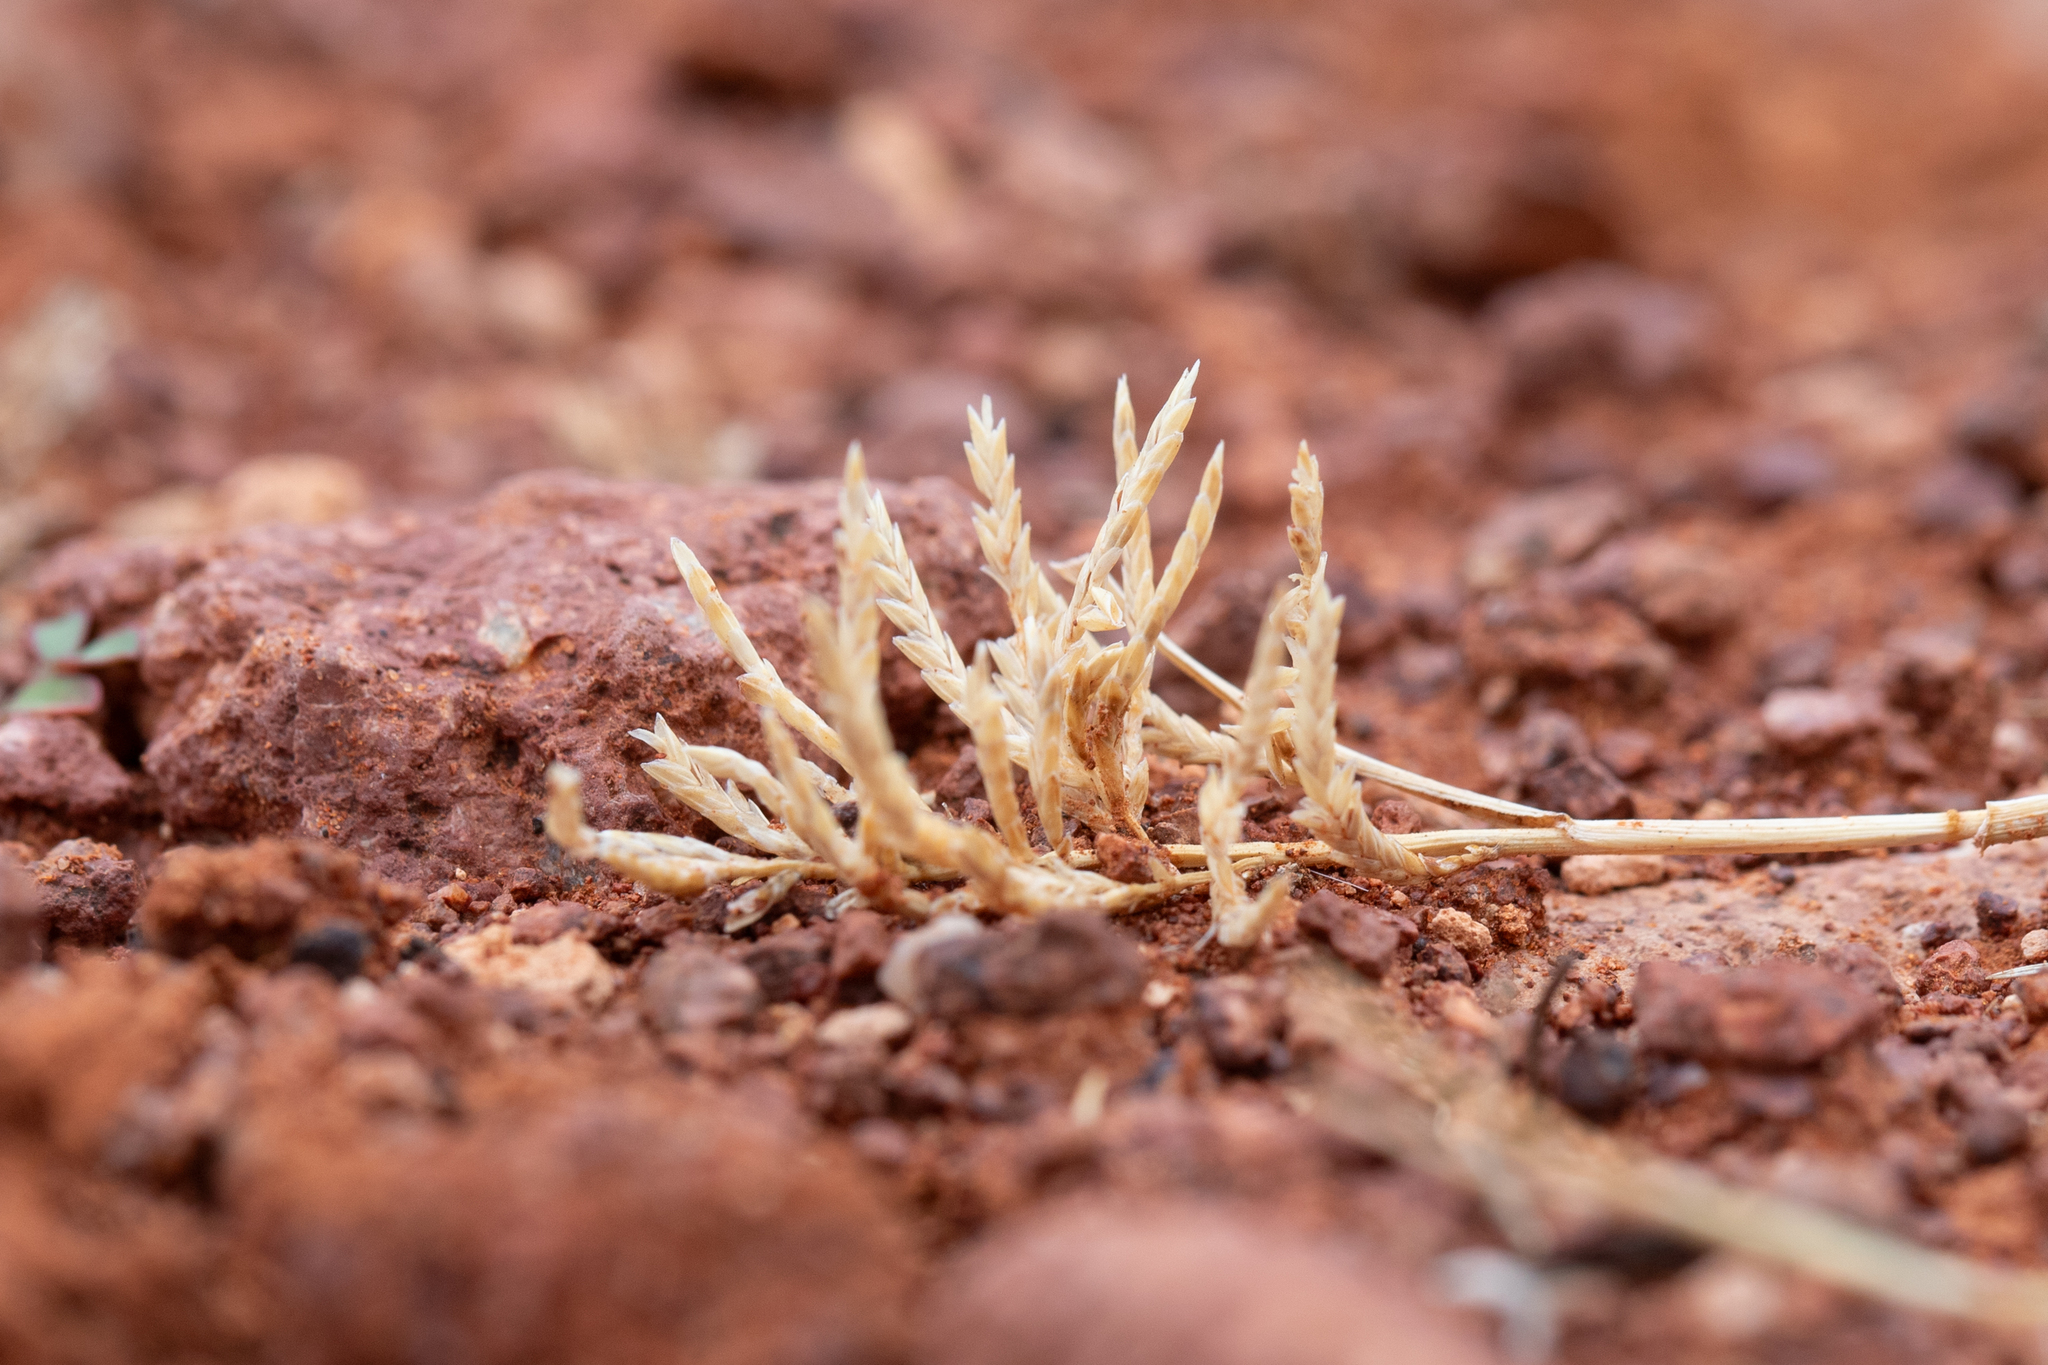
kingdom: Plantae
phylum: Tracheophyta
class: Liliopsida
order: Poales
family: Poaceae
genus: Eragrostis
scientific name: Eragrostis dielsii
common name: Lovegrass
